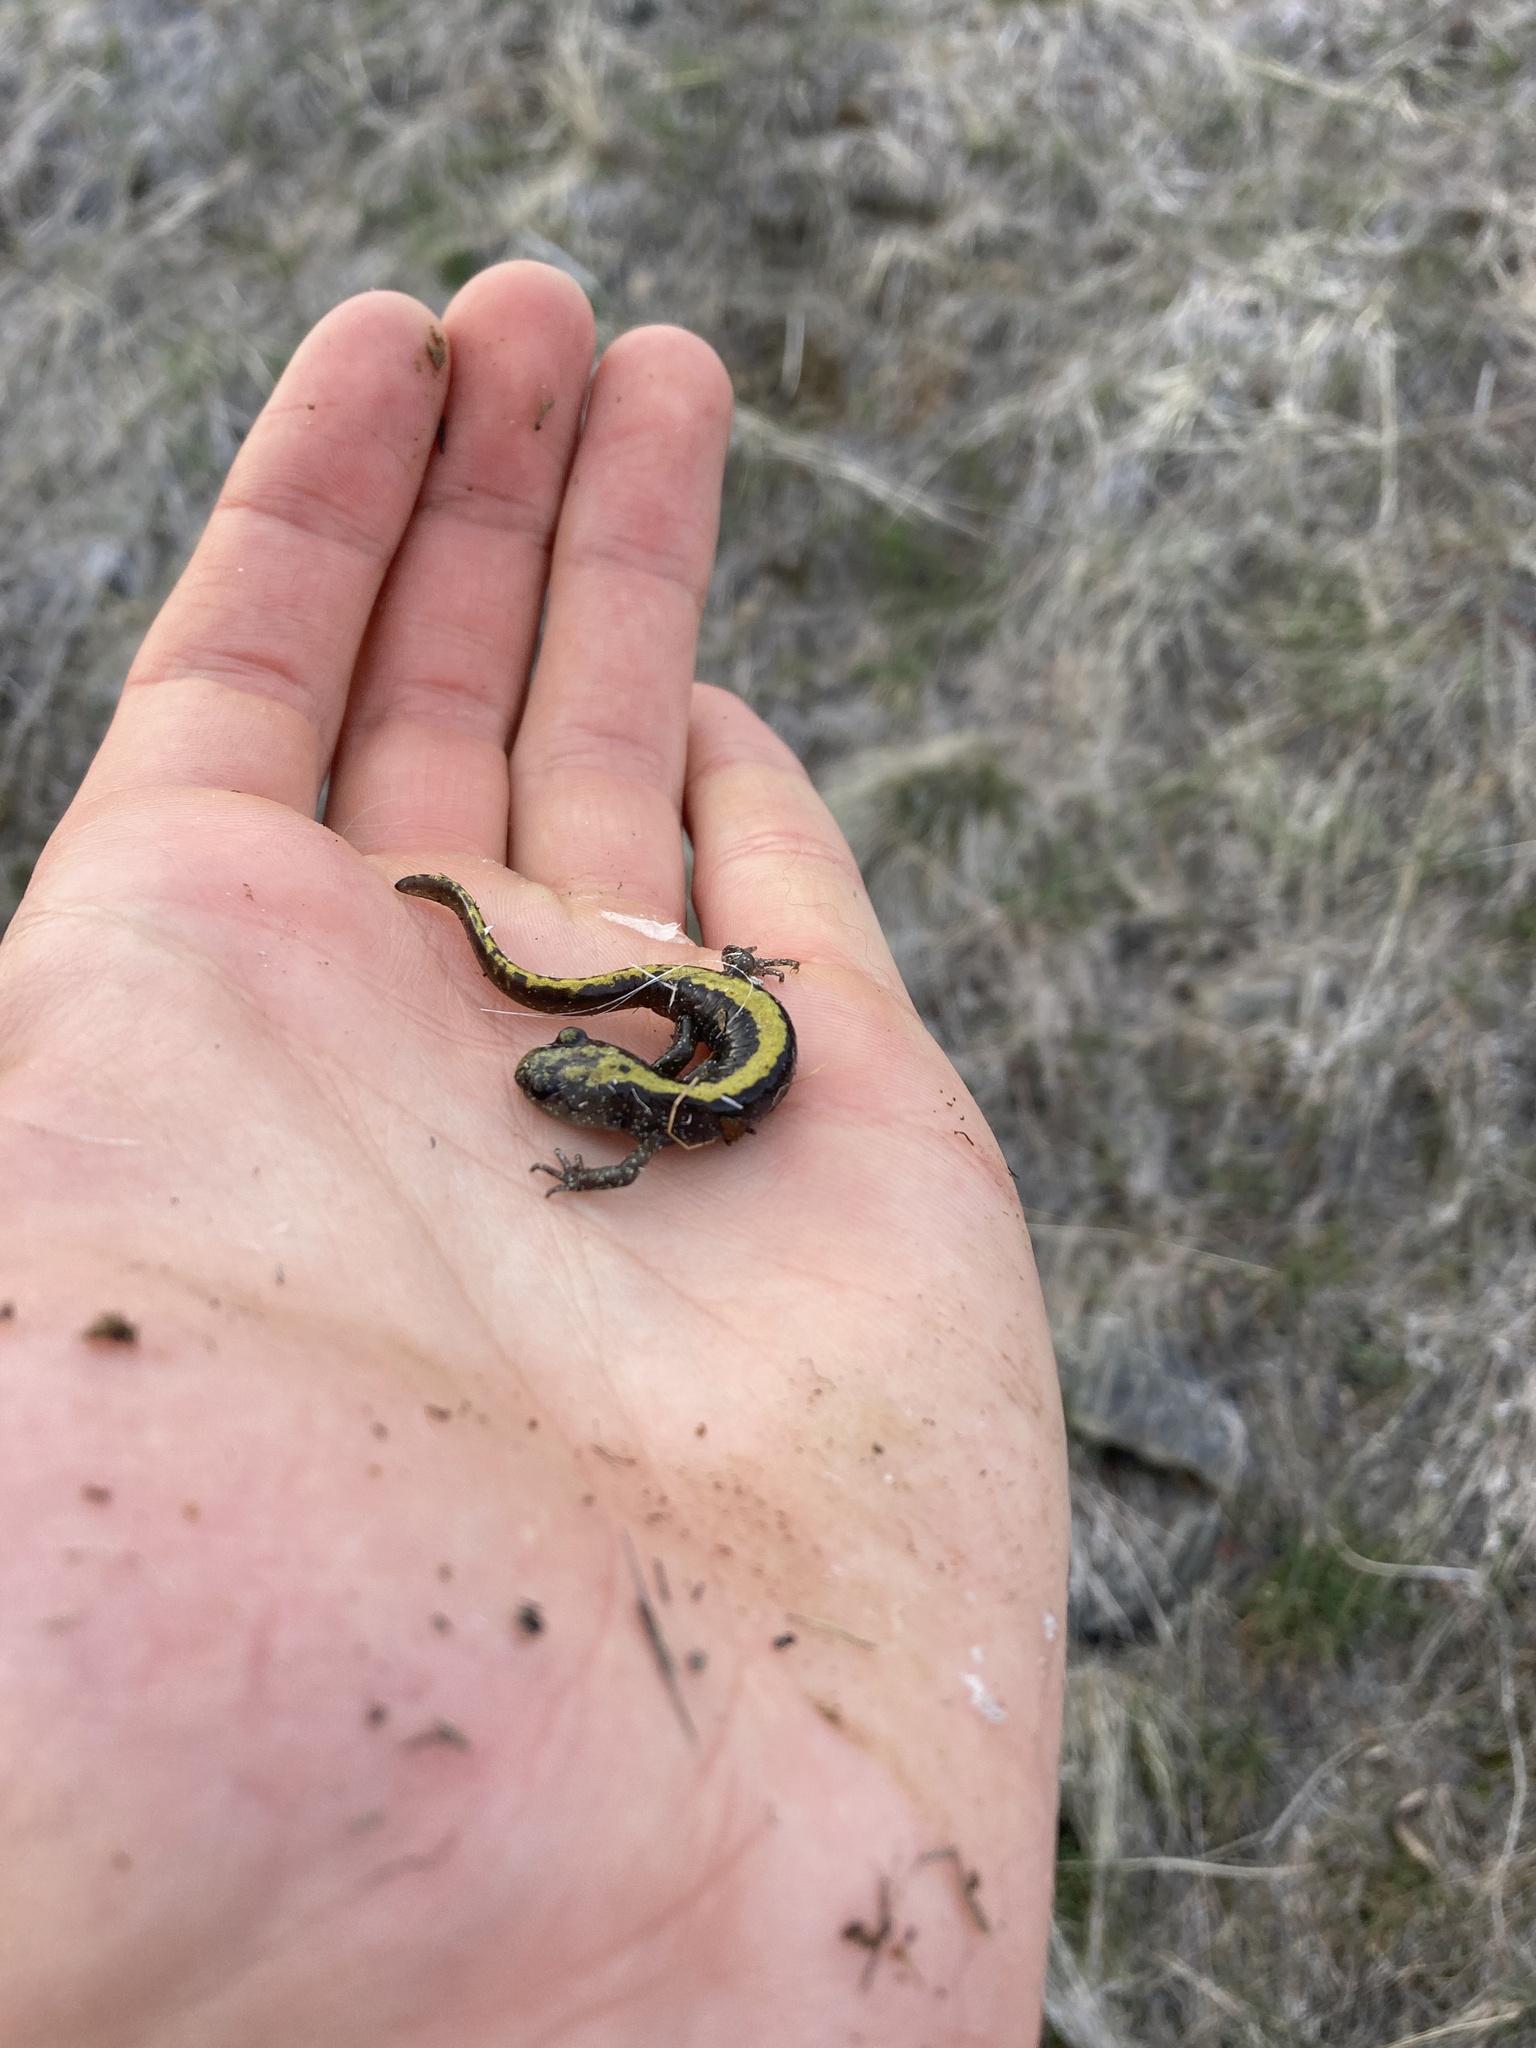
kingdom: Animalia
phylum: Chordata
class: Amphibia
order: Caudata
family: Ambystomatidae
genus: Ambystoma
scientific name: Ambystoma macrodactylum
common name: Long-toed salamander
